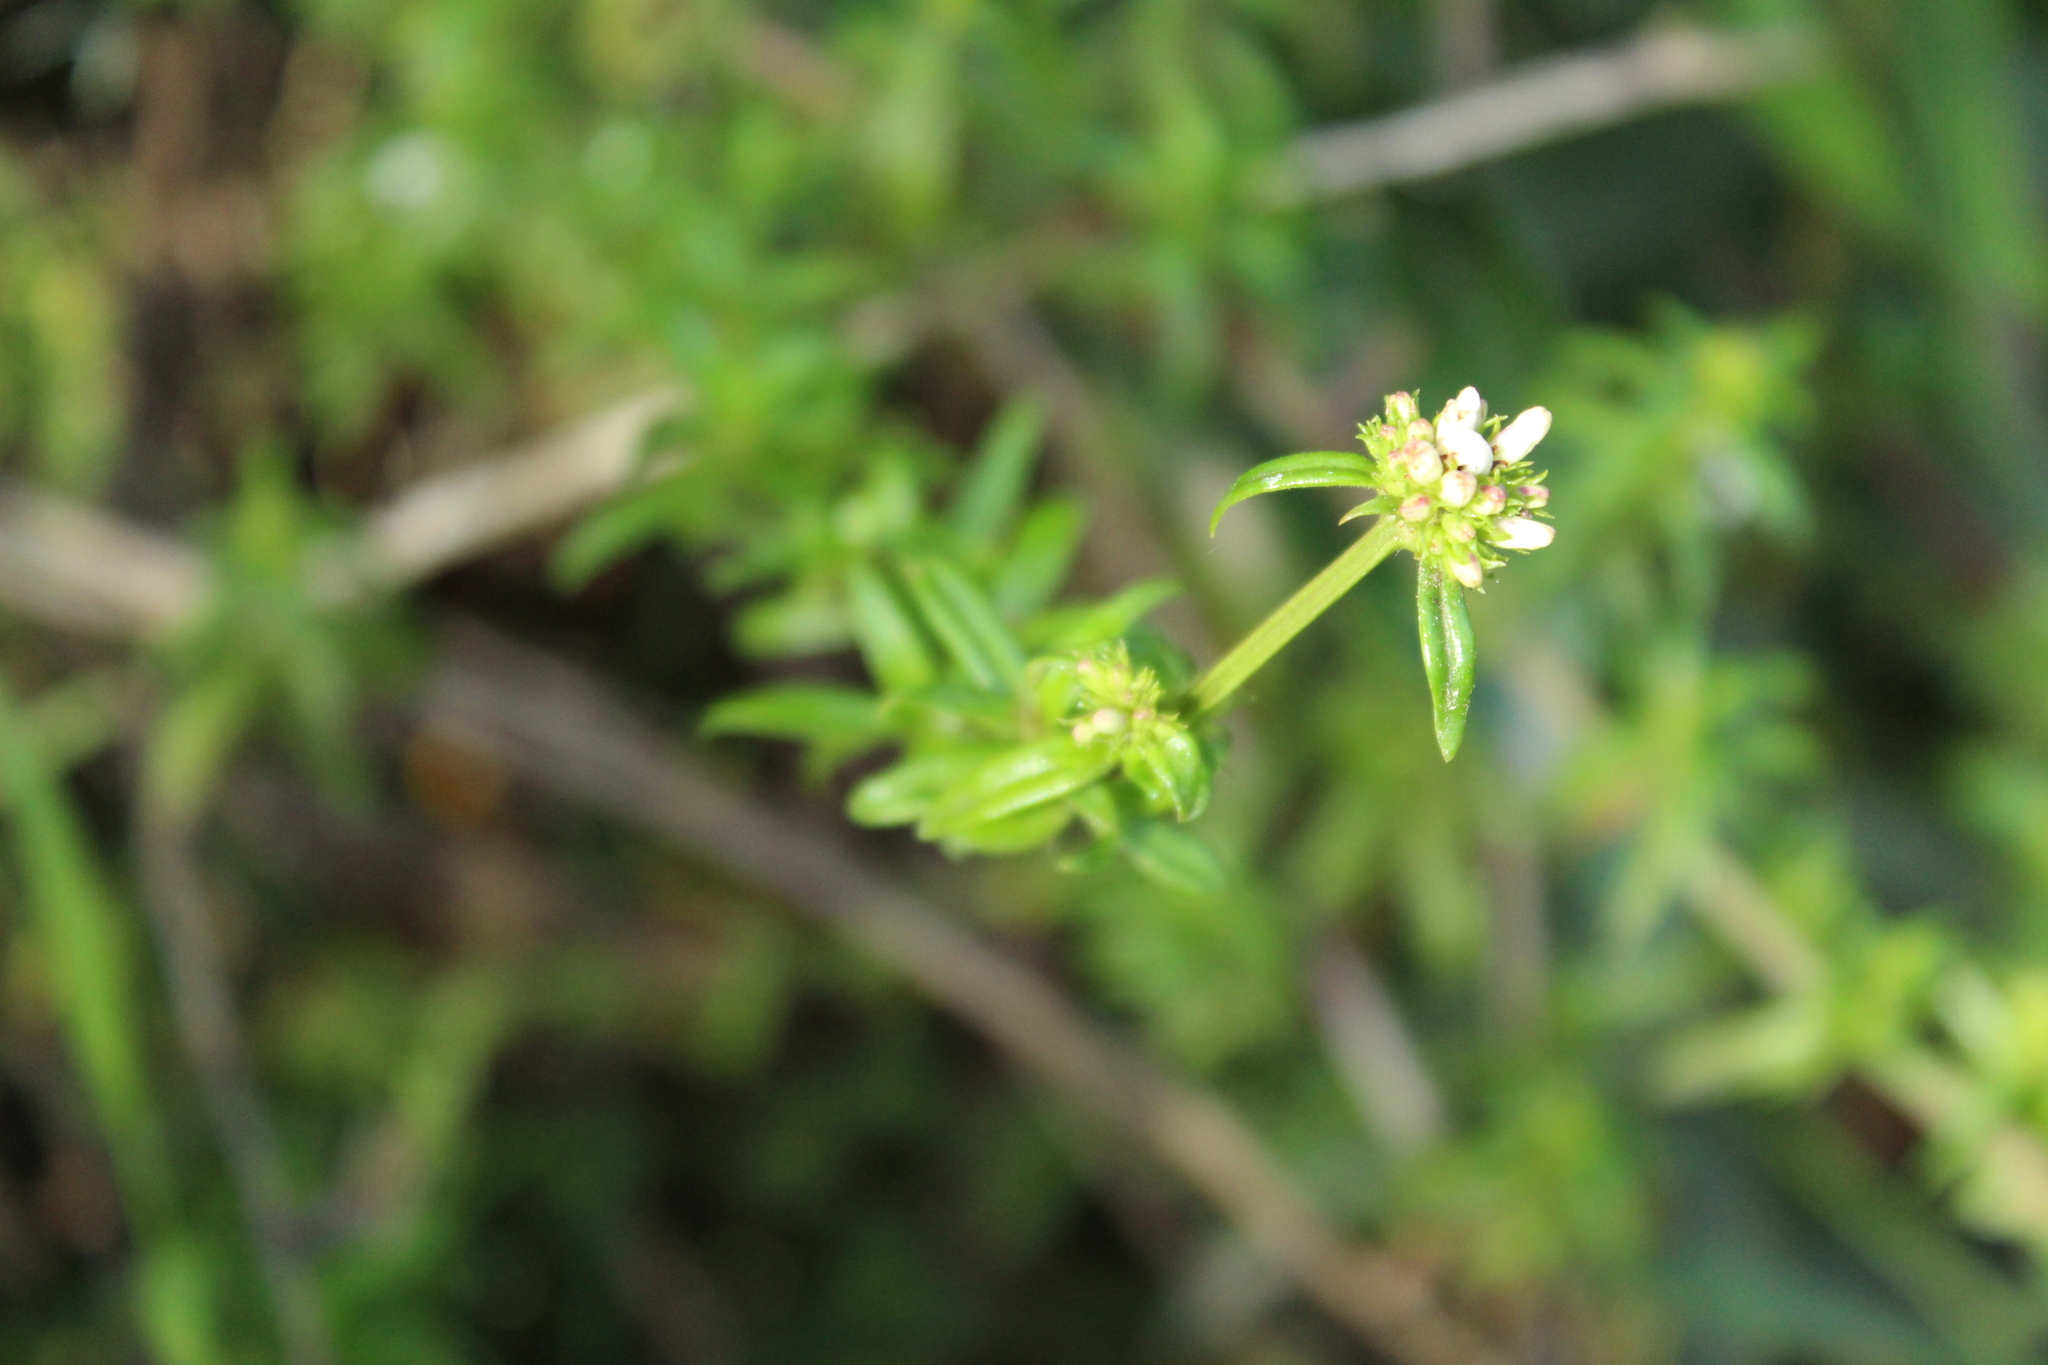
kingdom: Plantae
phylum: Tracheophyta
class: Magnoliopsida
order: Gentianales
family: Rubiaceae
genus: Galianthe
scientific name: Galianthe bogotensis
